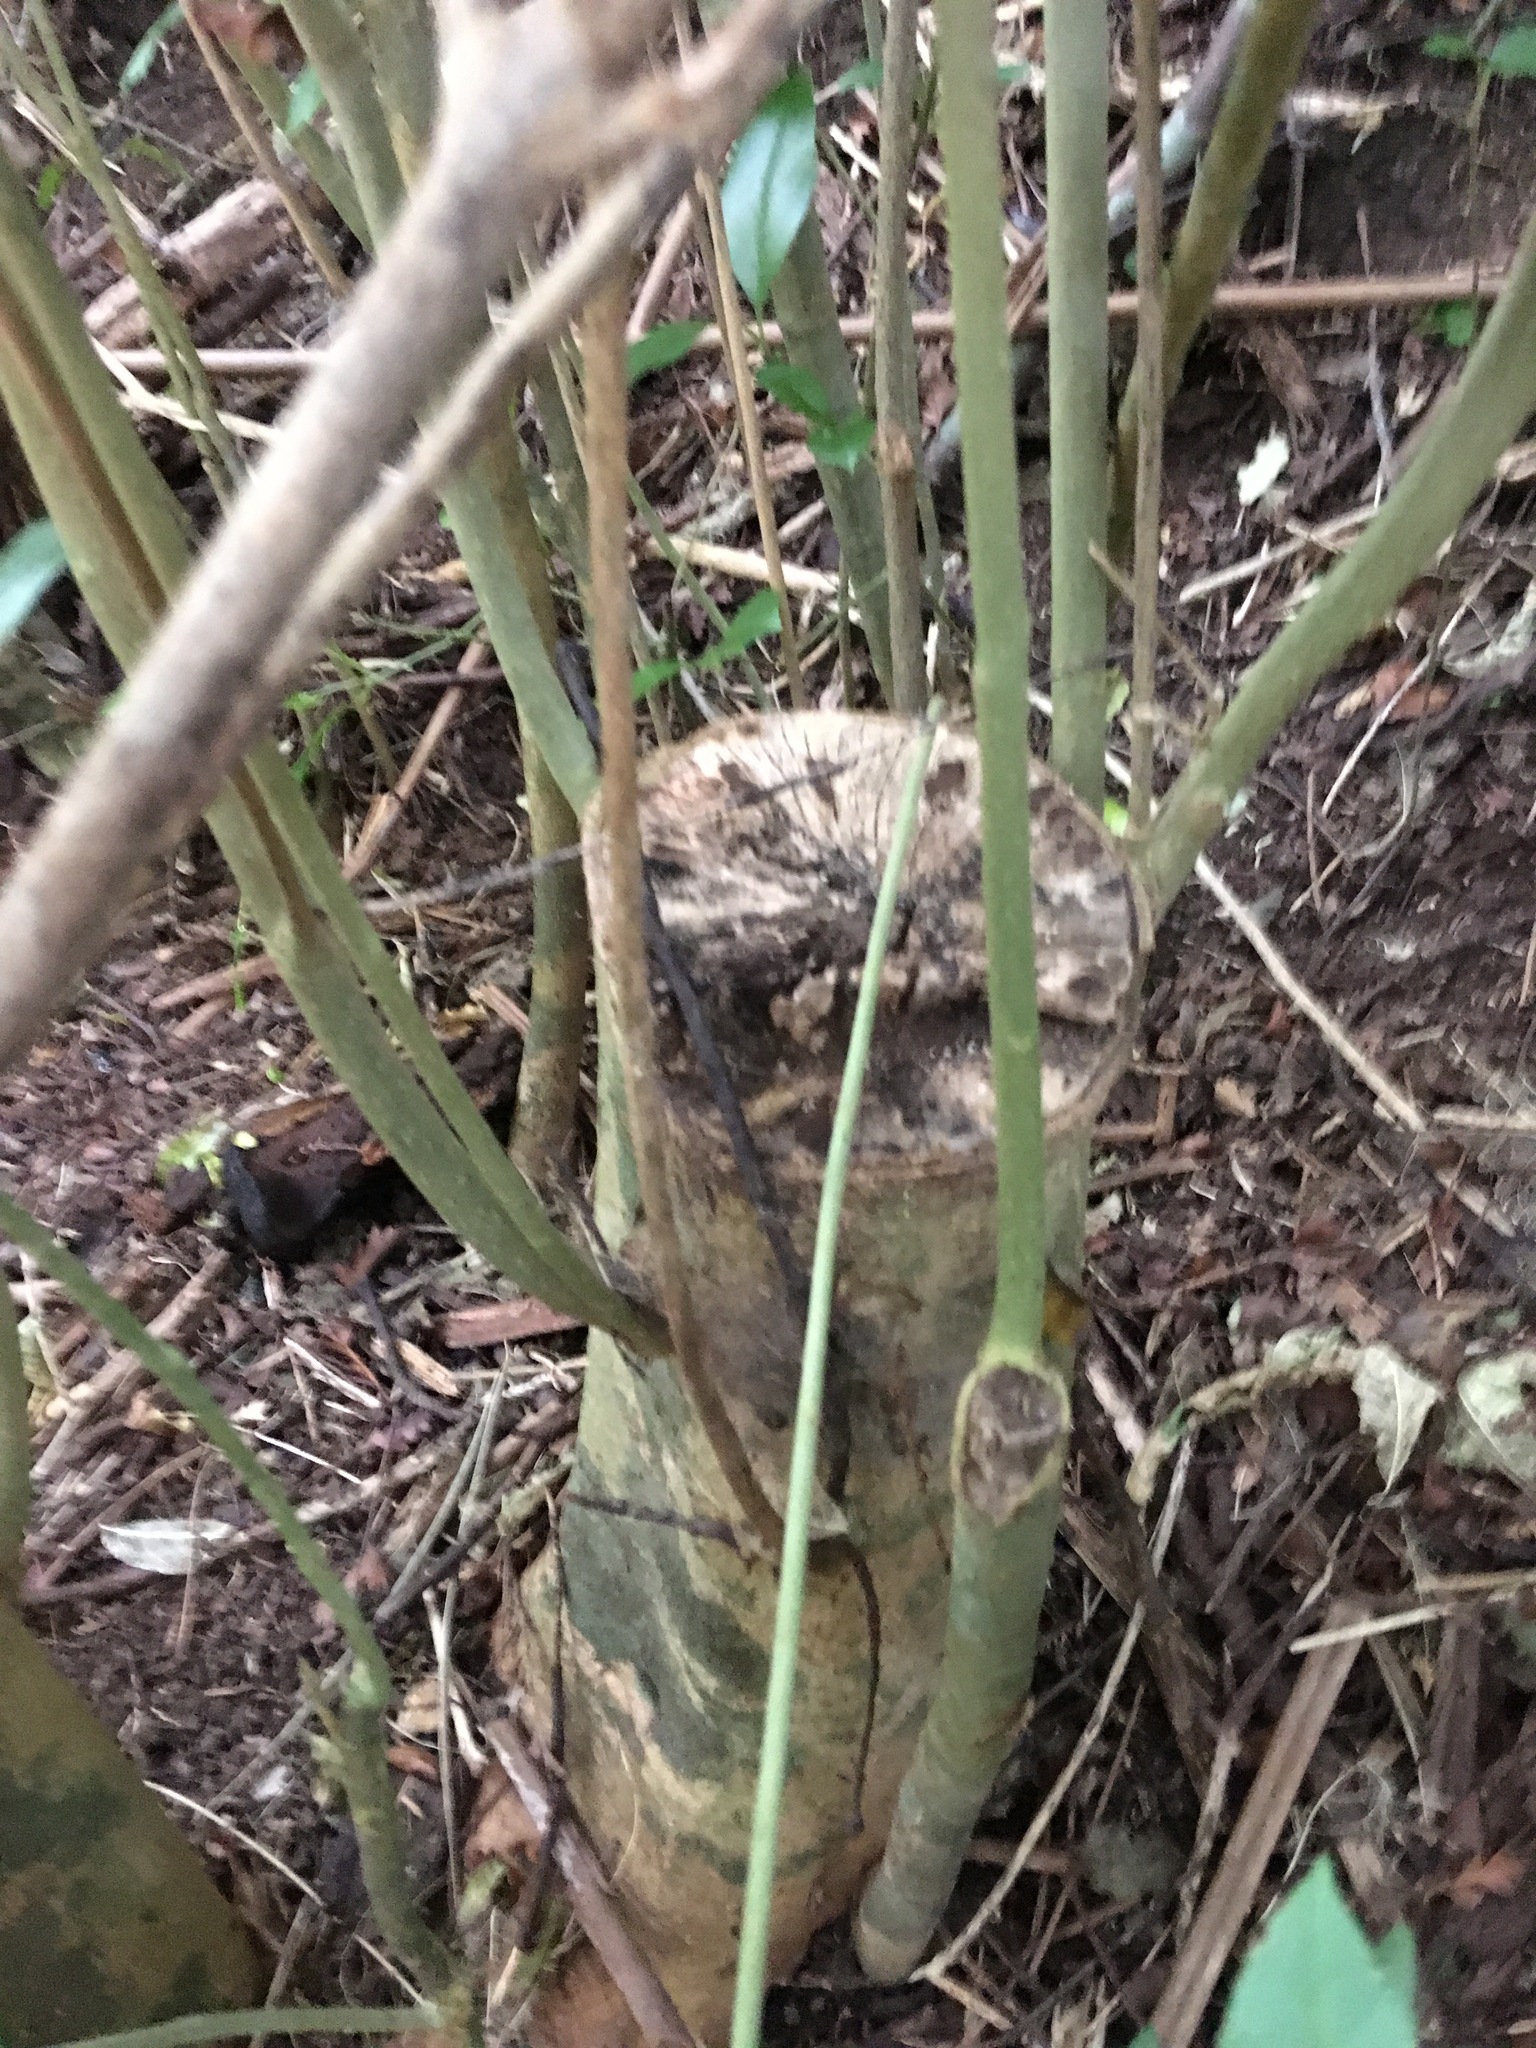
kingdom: Plantae
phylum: Tracheophyta
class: Magnoliopsida
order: Lamiales
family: Oleaceae
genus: Ligustrum
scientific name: Ligustrum lucidum
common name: Glossy privet
